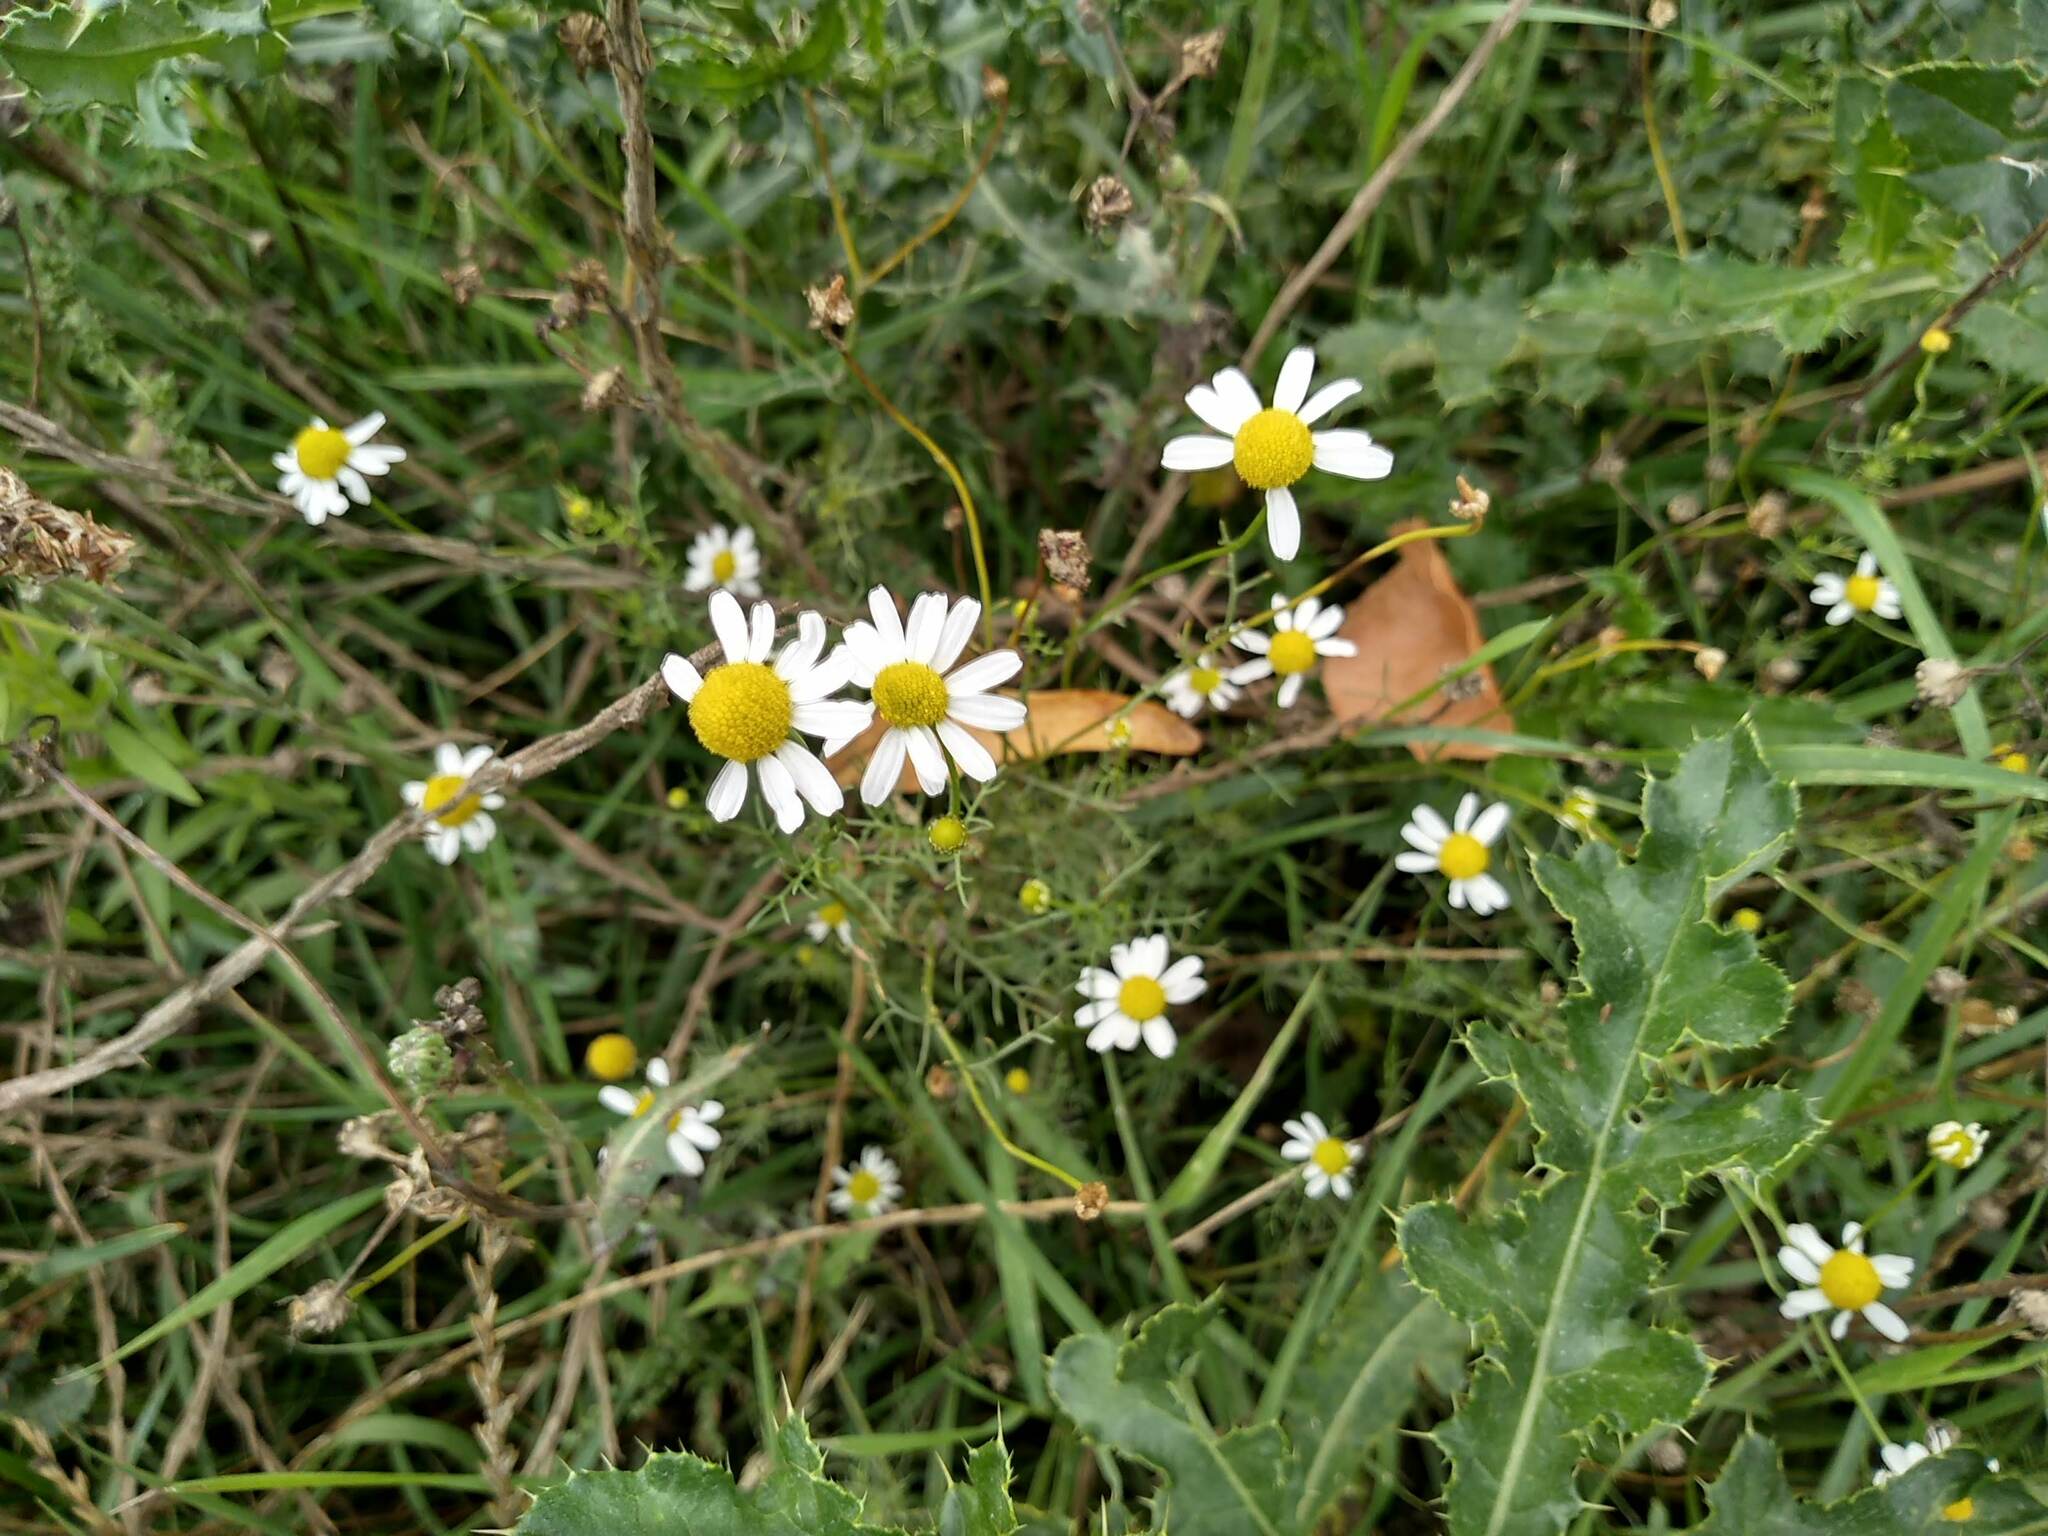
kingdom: Plantae
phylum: Tracheophyta
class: Magnoliopsida
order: Asterales
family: Asteraceae
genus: Matricaria
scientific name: Matricaria chamomilla
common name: Scented mayweed
